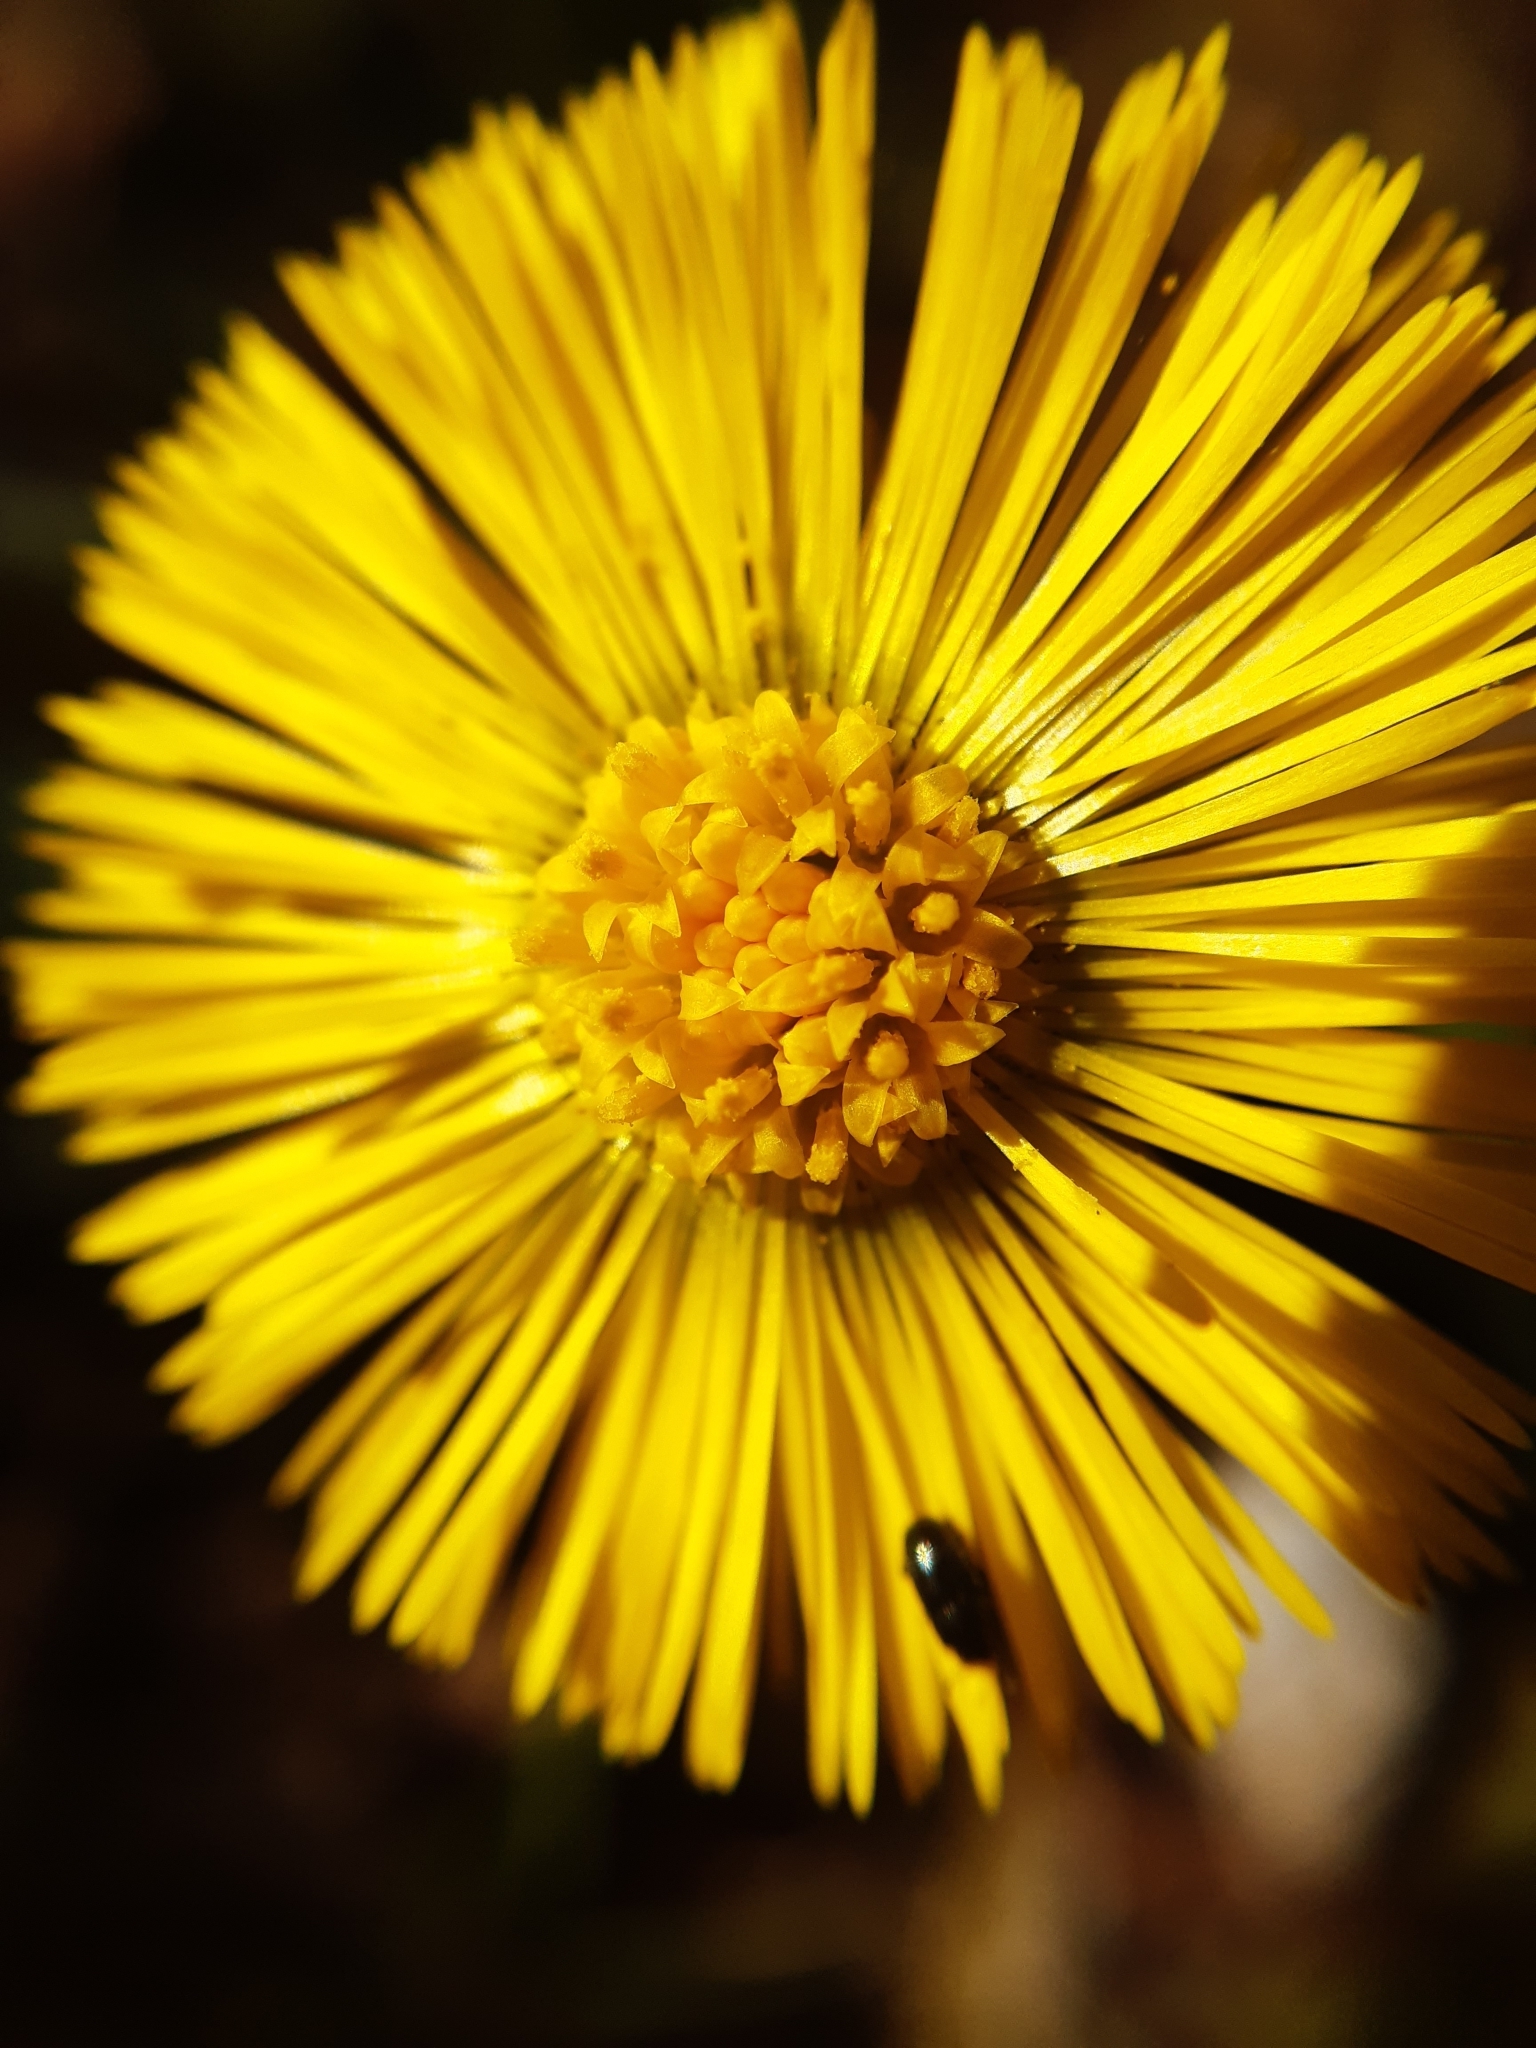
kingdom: Plantae
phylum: Tracheophyta
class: Magnoliopsida
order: Asterales
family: Asteraceae
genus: Tussilago
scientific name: Tussilago farfara
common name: Coltsfoot
